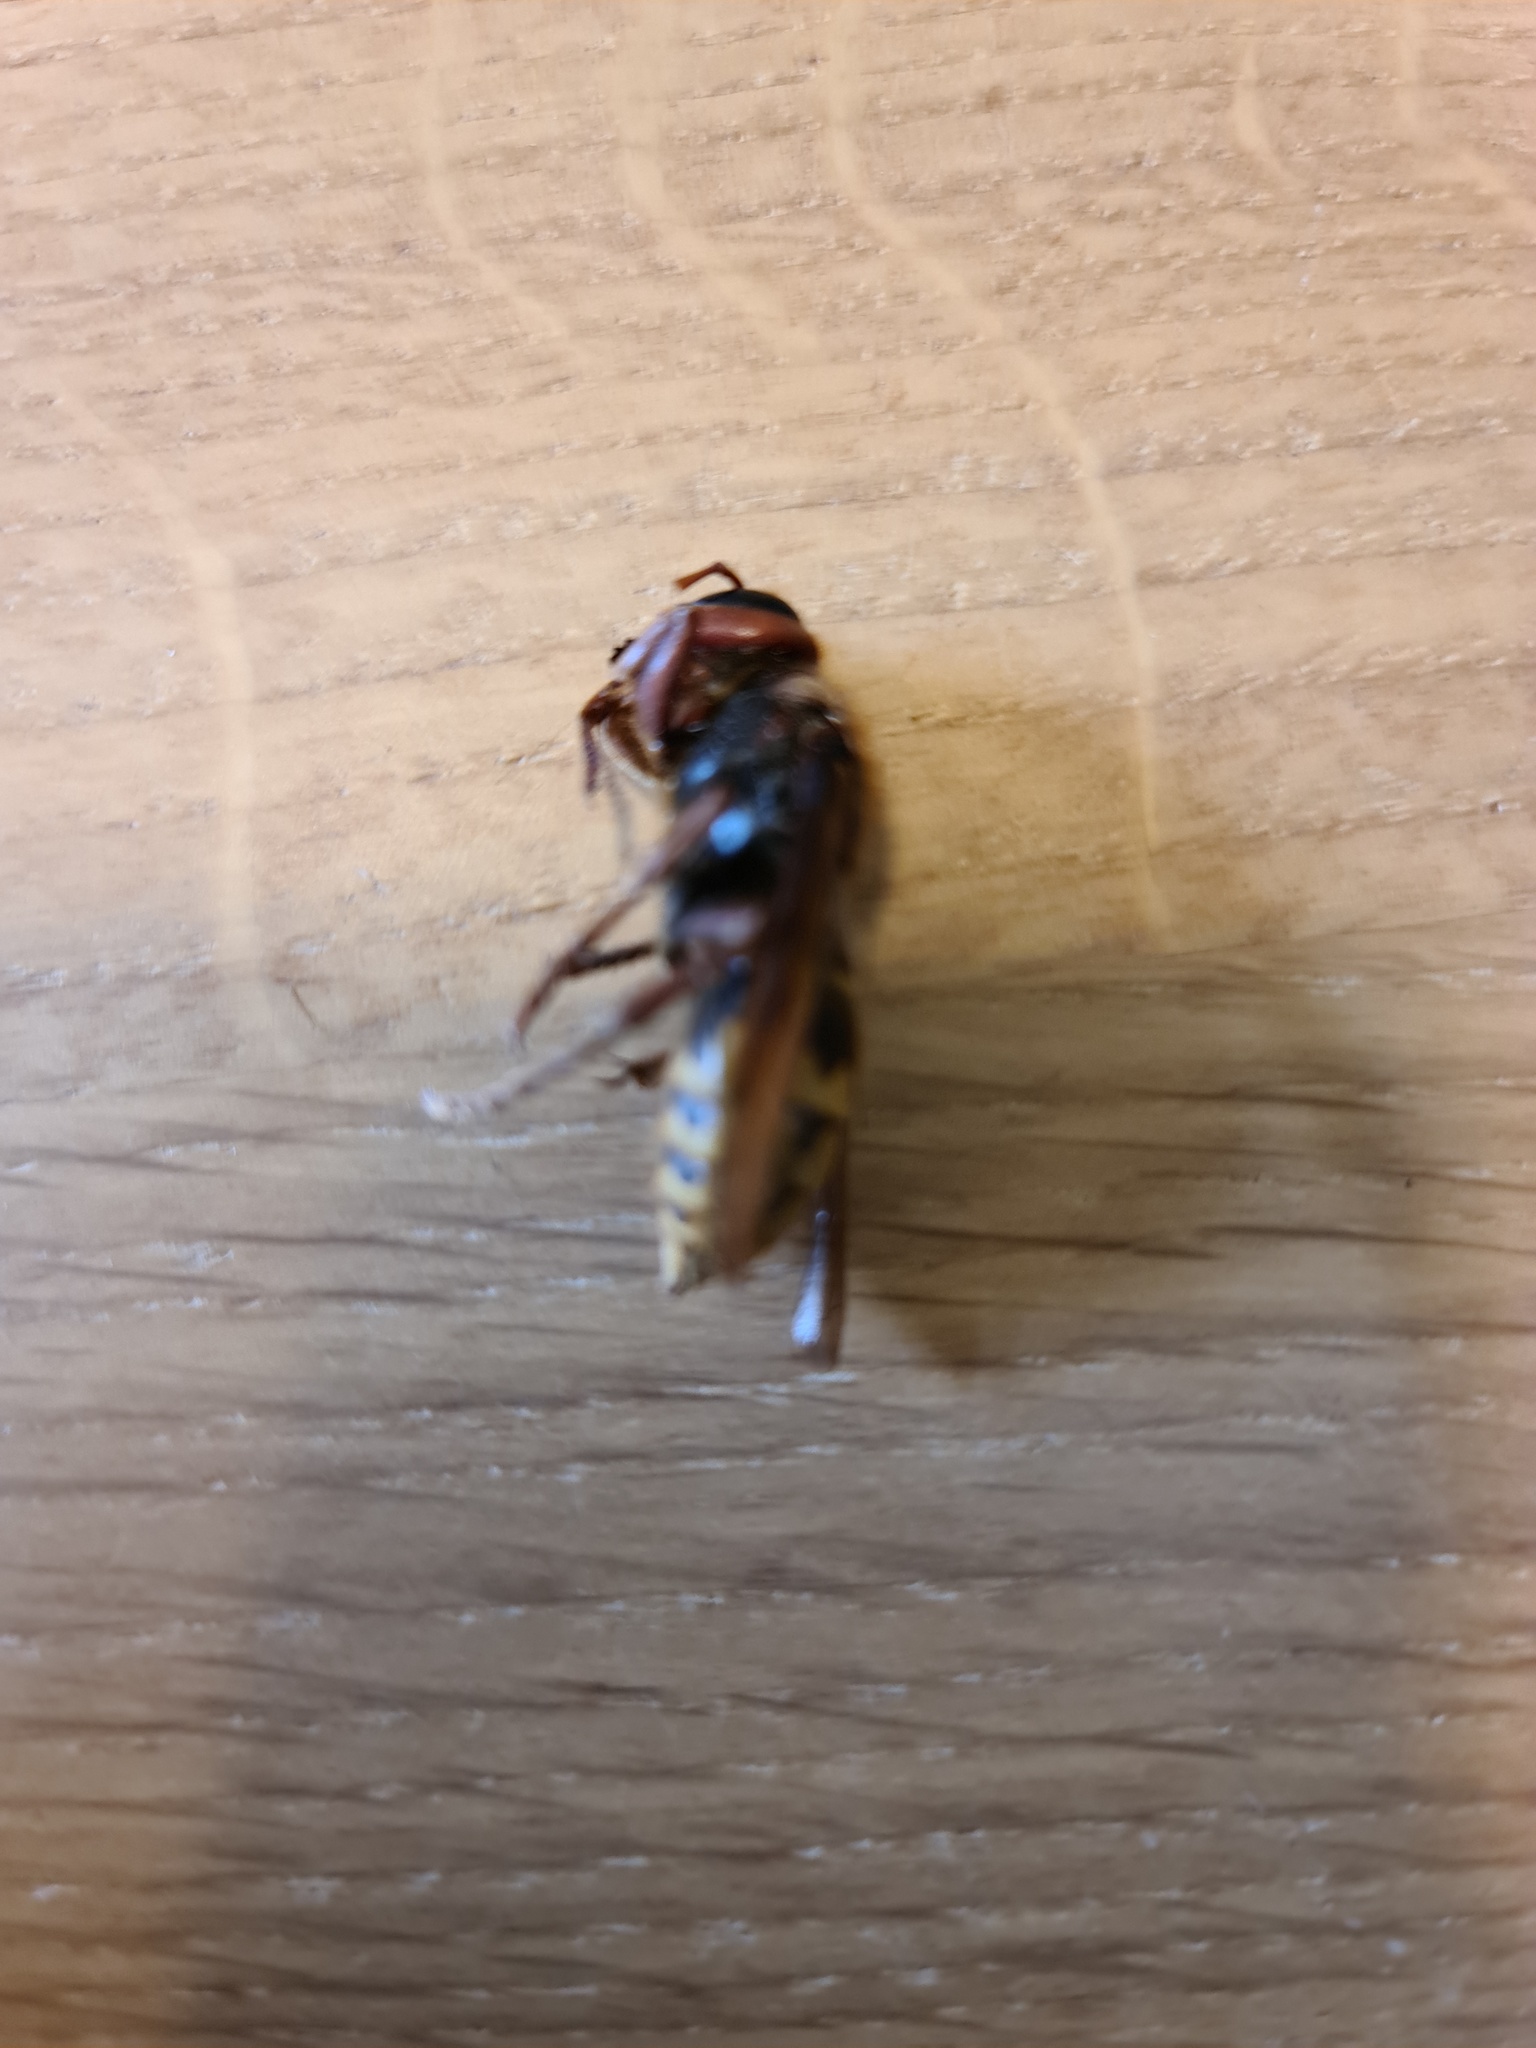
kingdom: Animalia
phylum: Arthropoda
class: Insecta
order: Hymenoptera
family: Vespidae
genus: Vespa
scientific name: Vespa crabro
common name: Hornet
